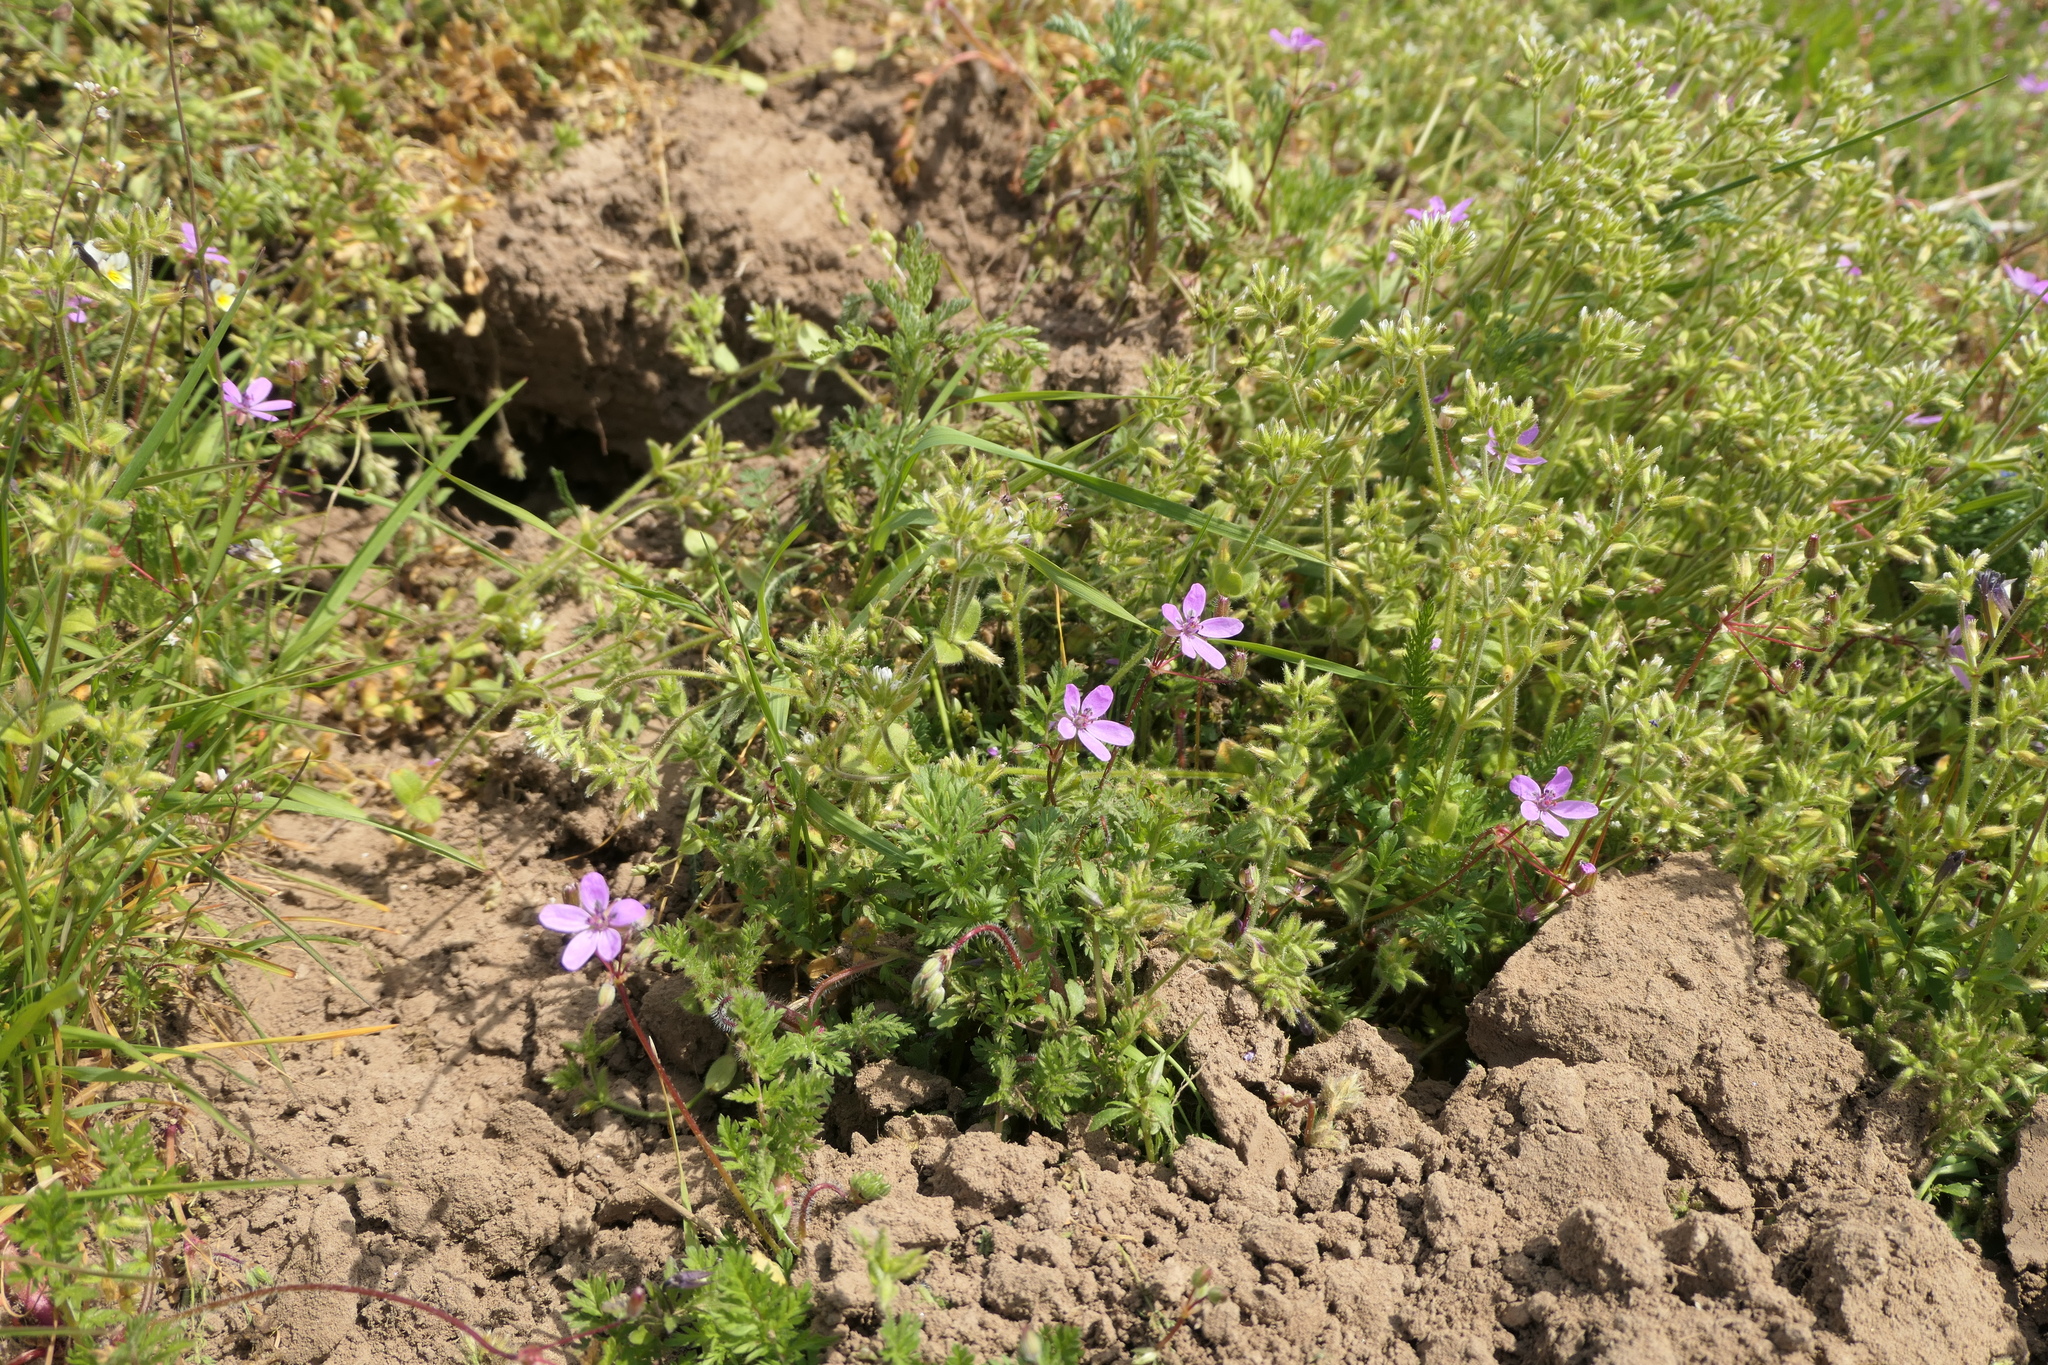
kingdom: Plantae
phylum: Tracheophyta
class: Magnoliopsida
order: Geraniales
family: Geraniaceae
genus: Erodium
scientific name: Erodium cicutarium
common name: Common stork's-bill
